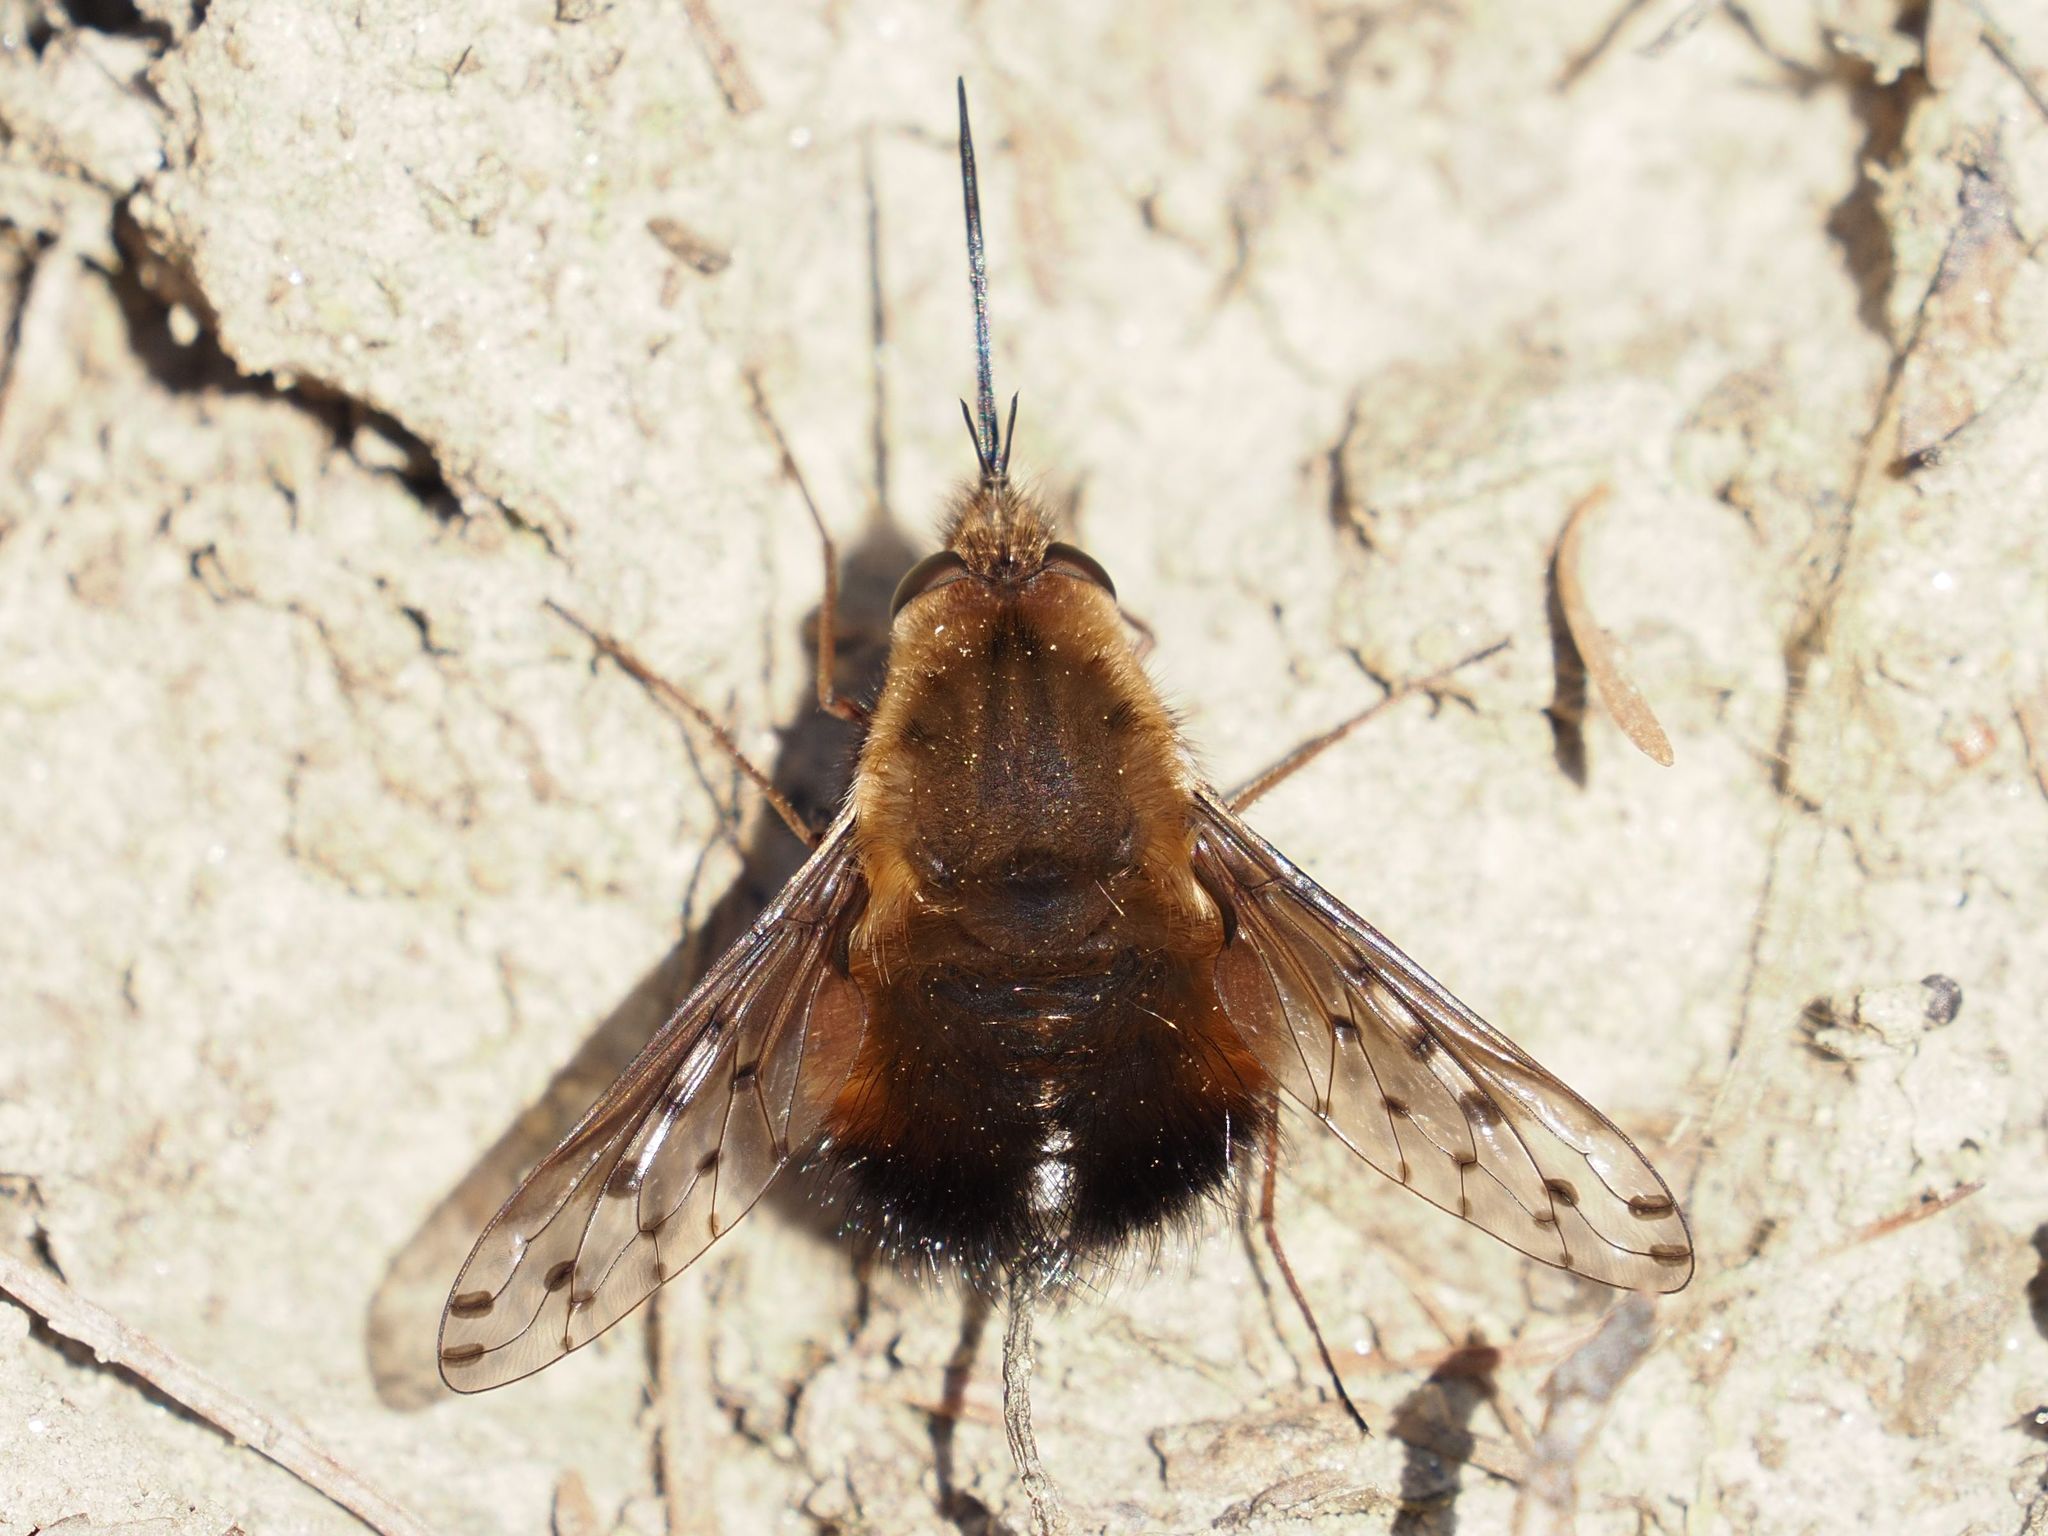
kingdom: Animalia
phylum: Arthropoda
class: Insecta
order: Diptera
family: Bombyliidae
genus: Bombylius
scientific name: Bombylius discolor
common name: Dotted bee-fly
